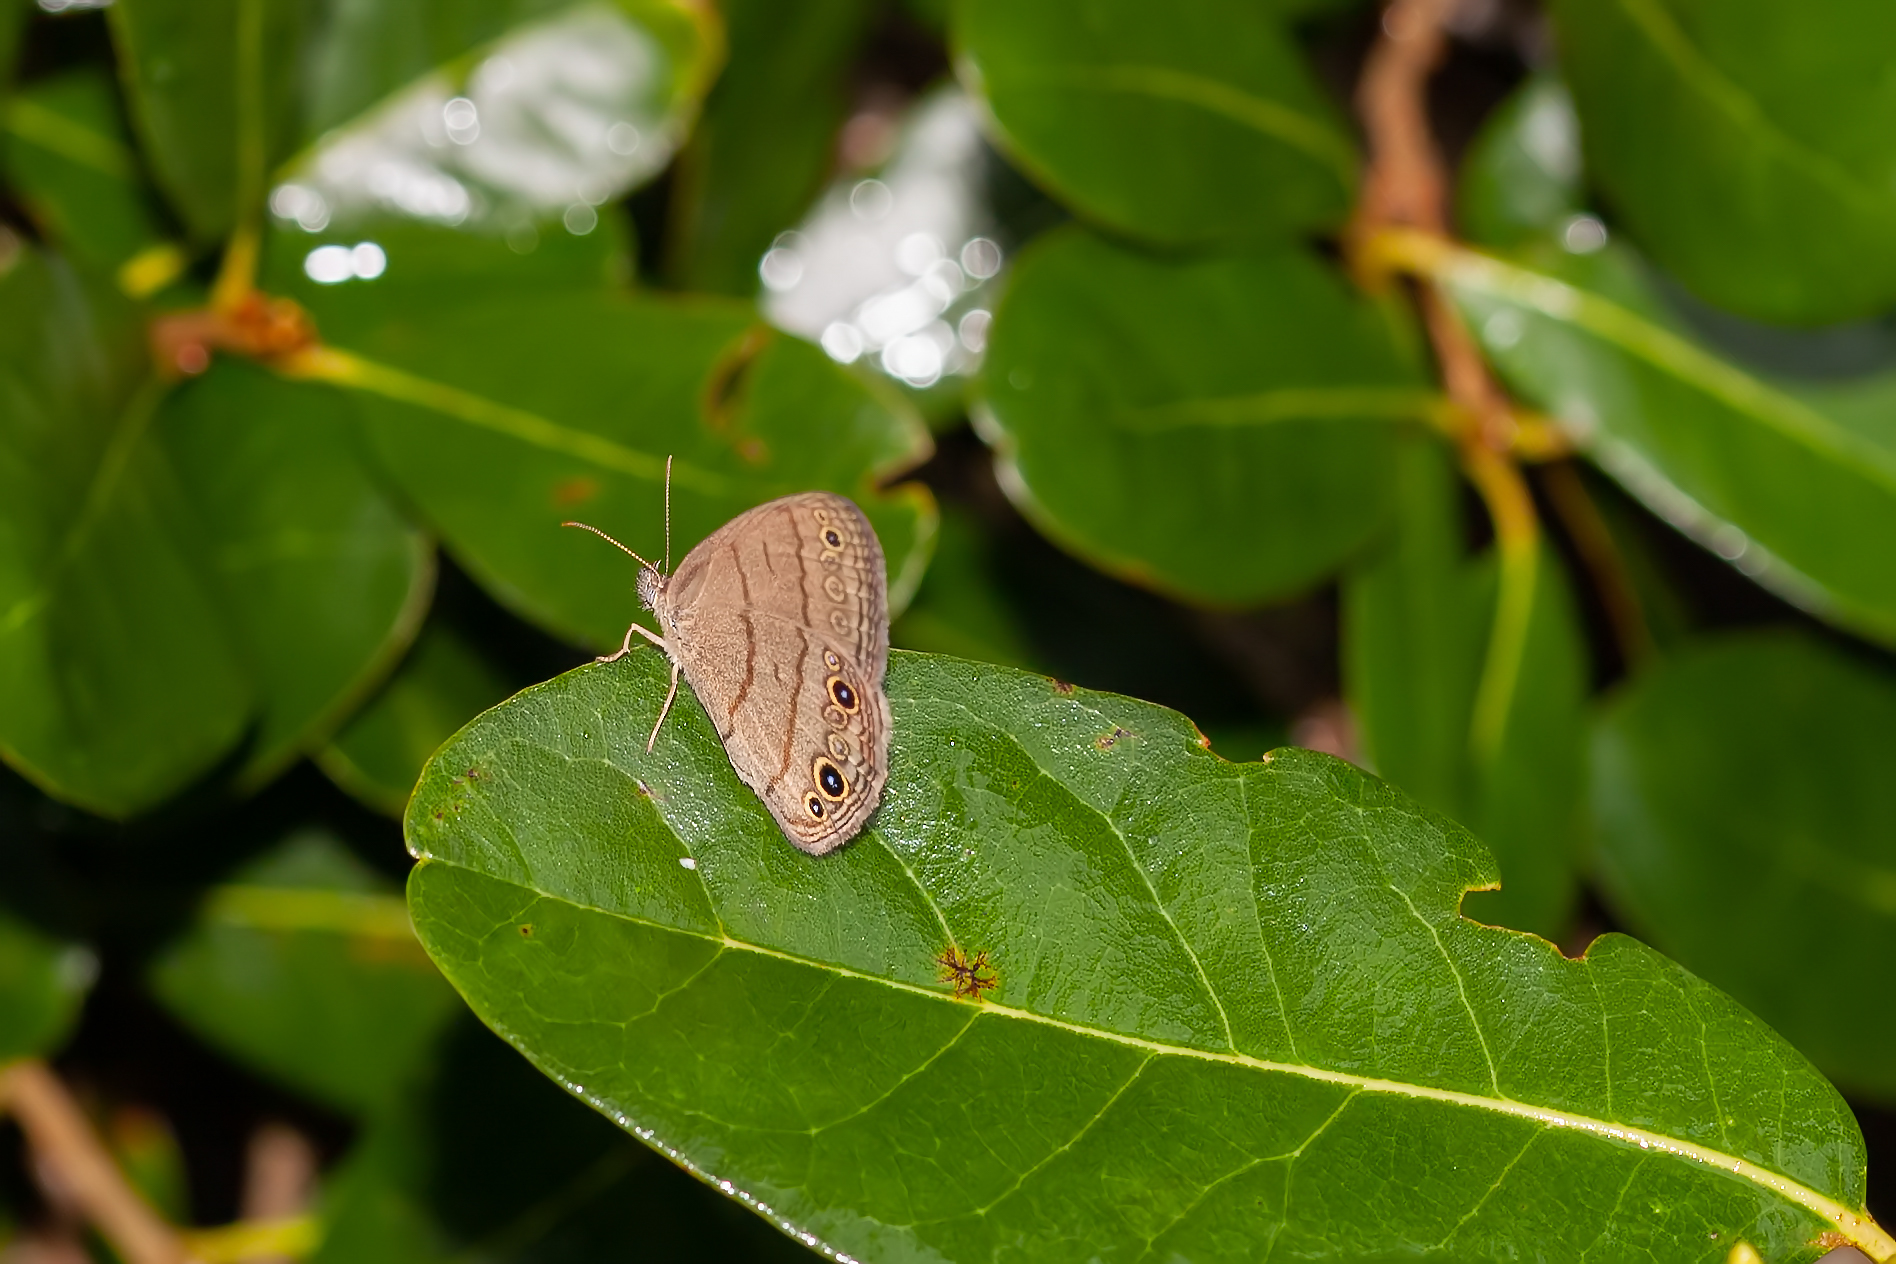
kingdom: Animalia
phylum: Arthropoda
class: Insecta
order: Lepidoptera
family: Nymphalidae
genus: Hermeuptychia
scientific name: Hermeuptychia hermes
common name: Hermes satyr
